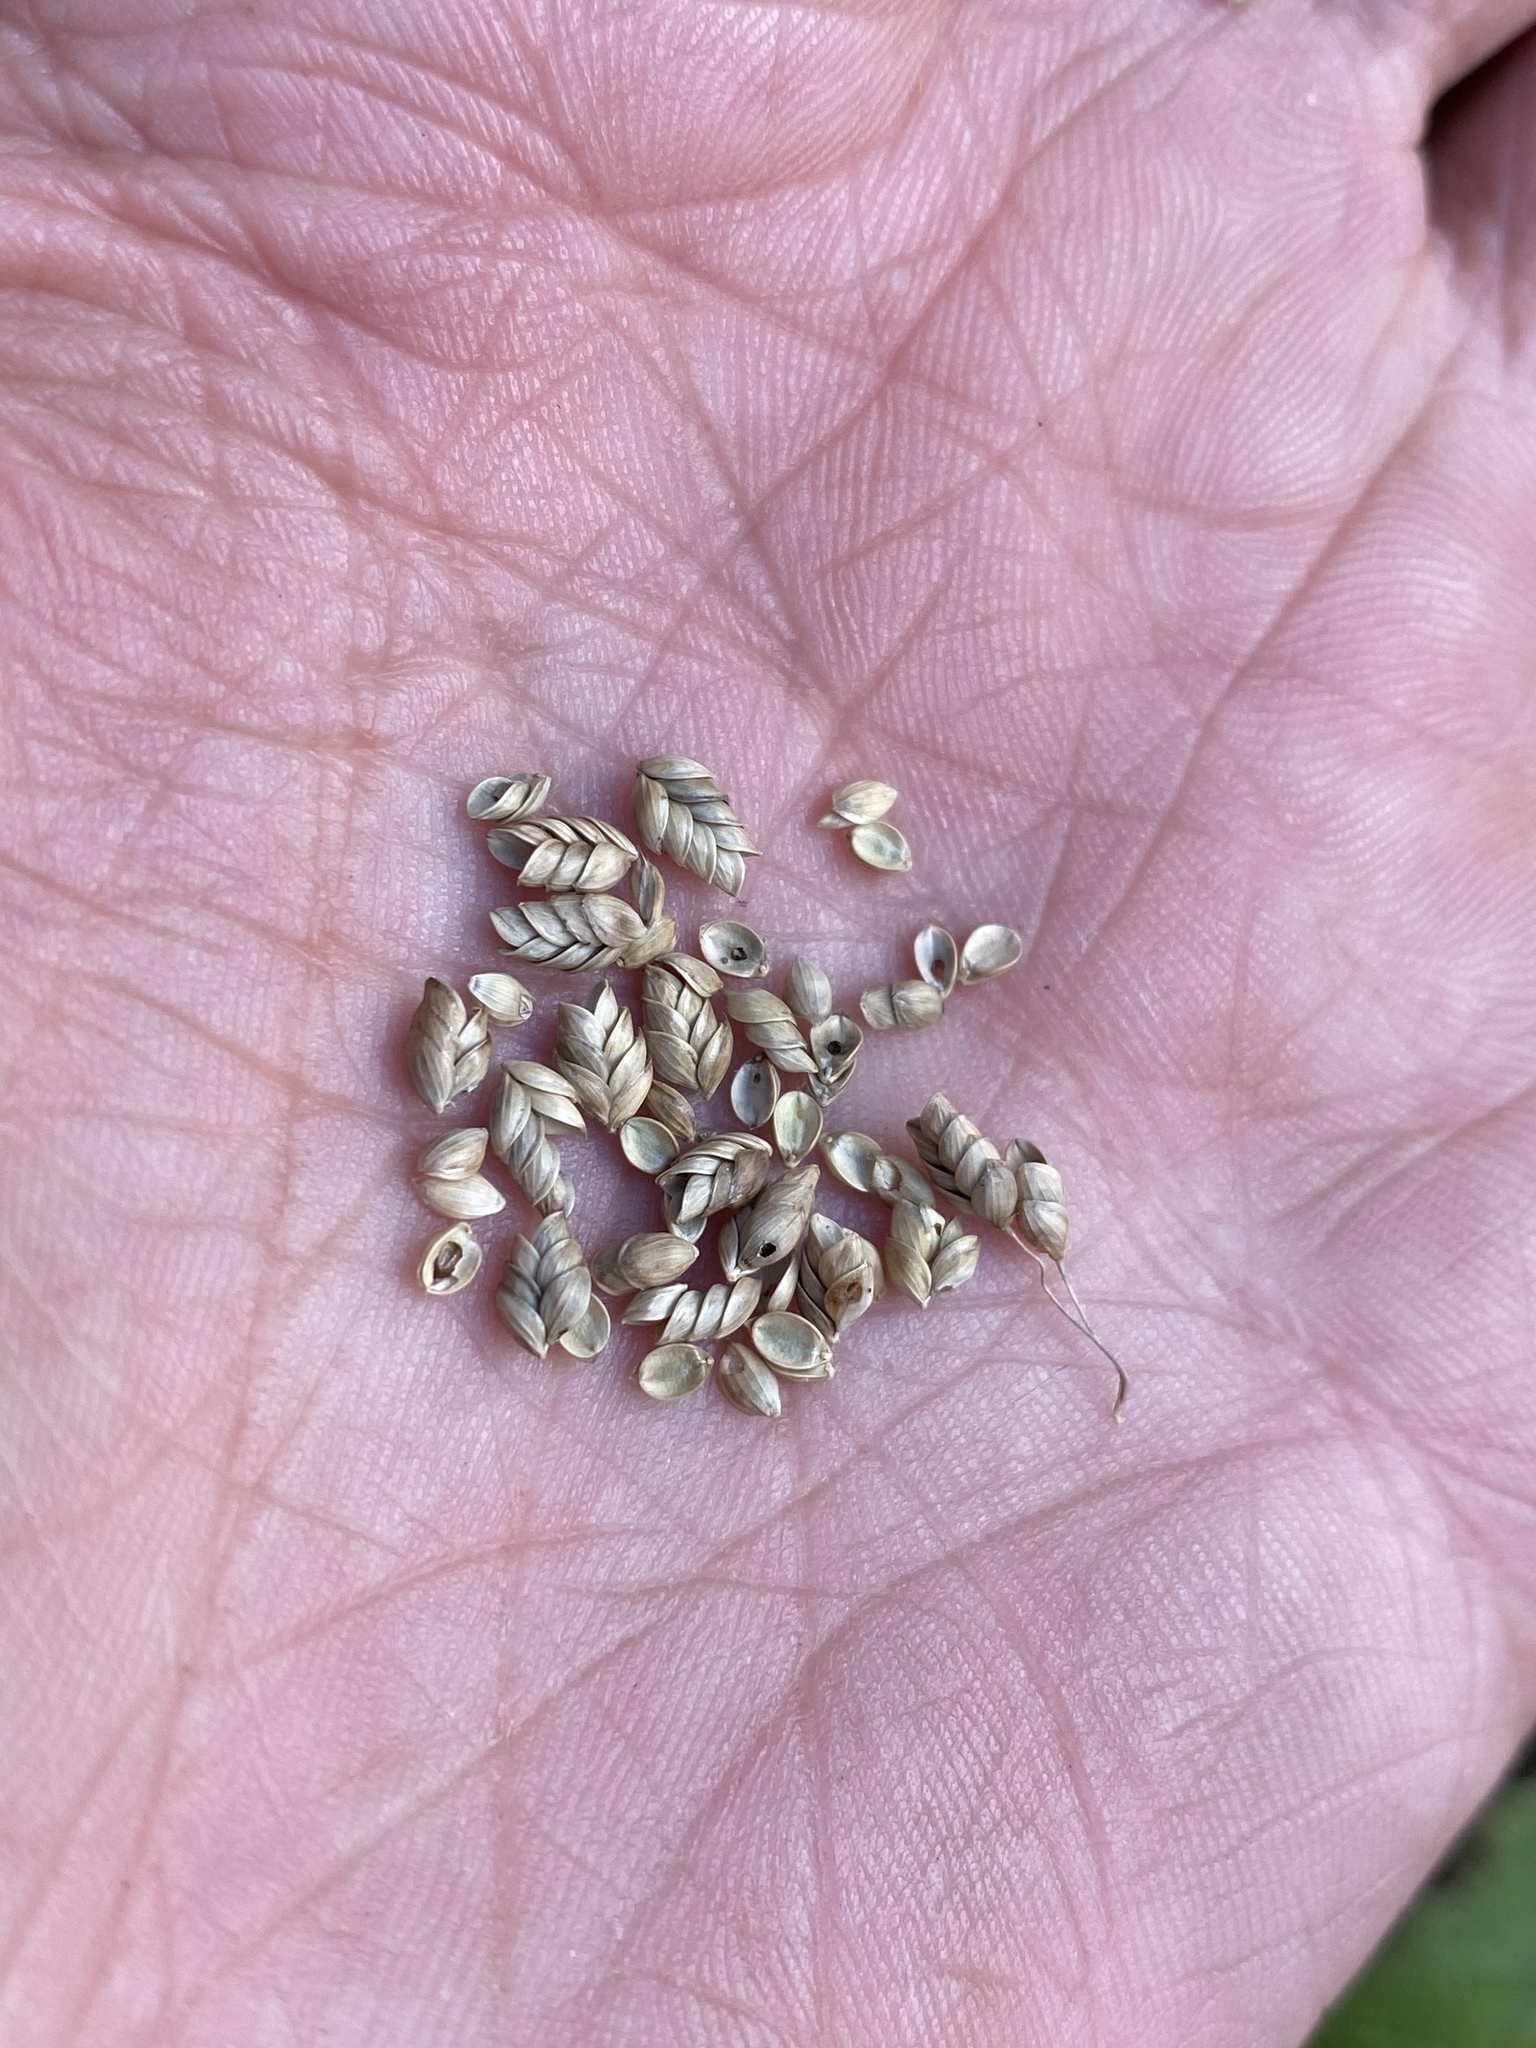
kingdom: Plantae
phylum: Tracheophyta
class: Liliopsida
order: Poales
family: Poaceae
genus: Glyceria
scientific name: Glyceria canadensis
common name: Canada mannagrass
